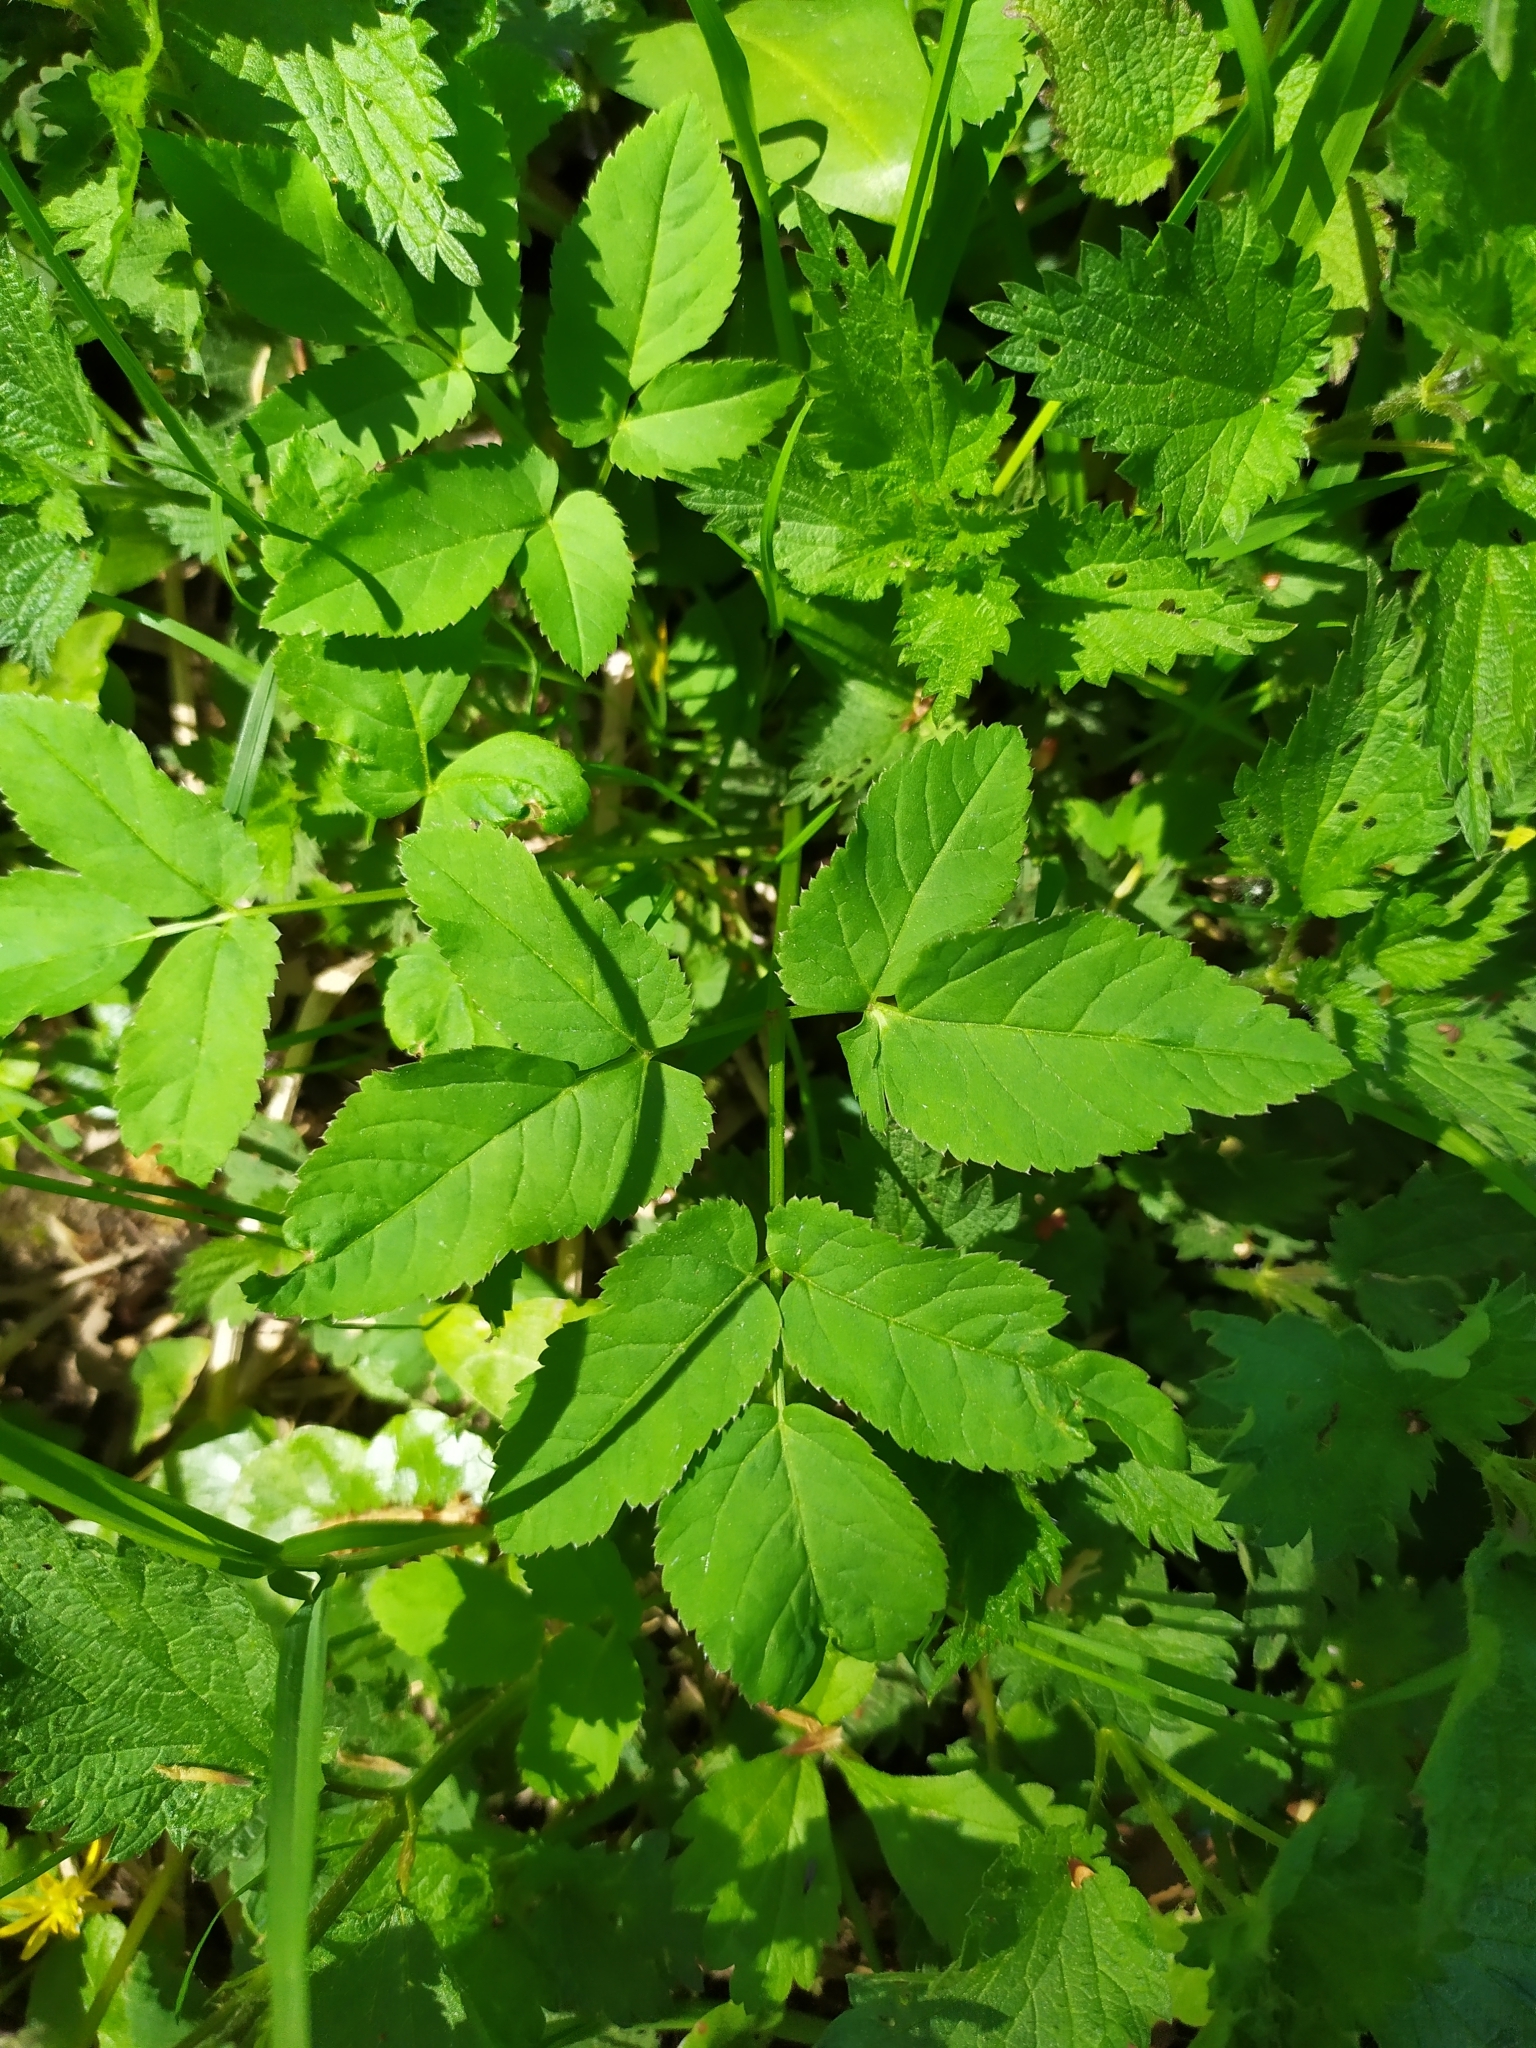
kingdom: Plantae
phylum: Tracheophyta
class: Magnoliopsida
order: Apiales
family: Apiaceae
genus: Aegopodium
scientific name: Aegopodium podagraria
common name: Ground-elder
